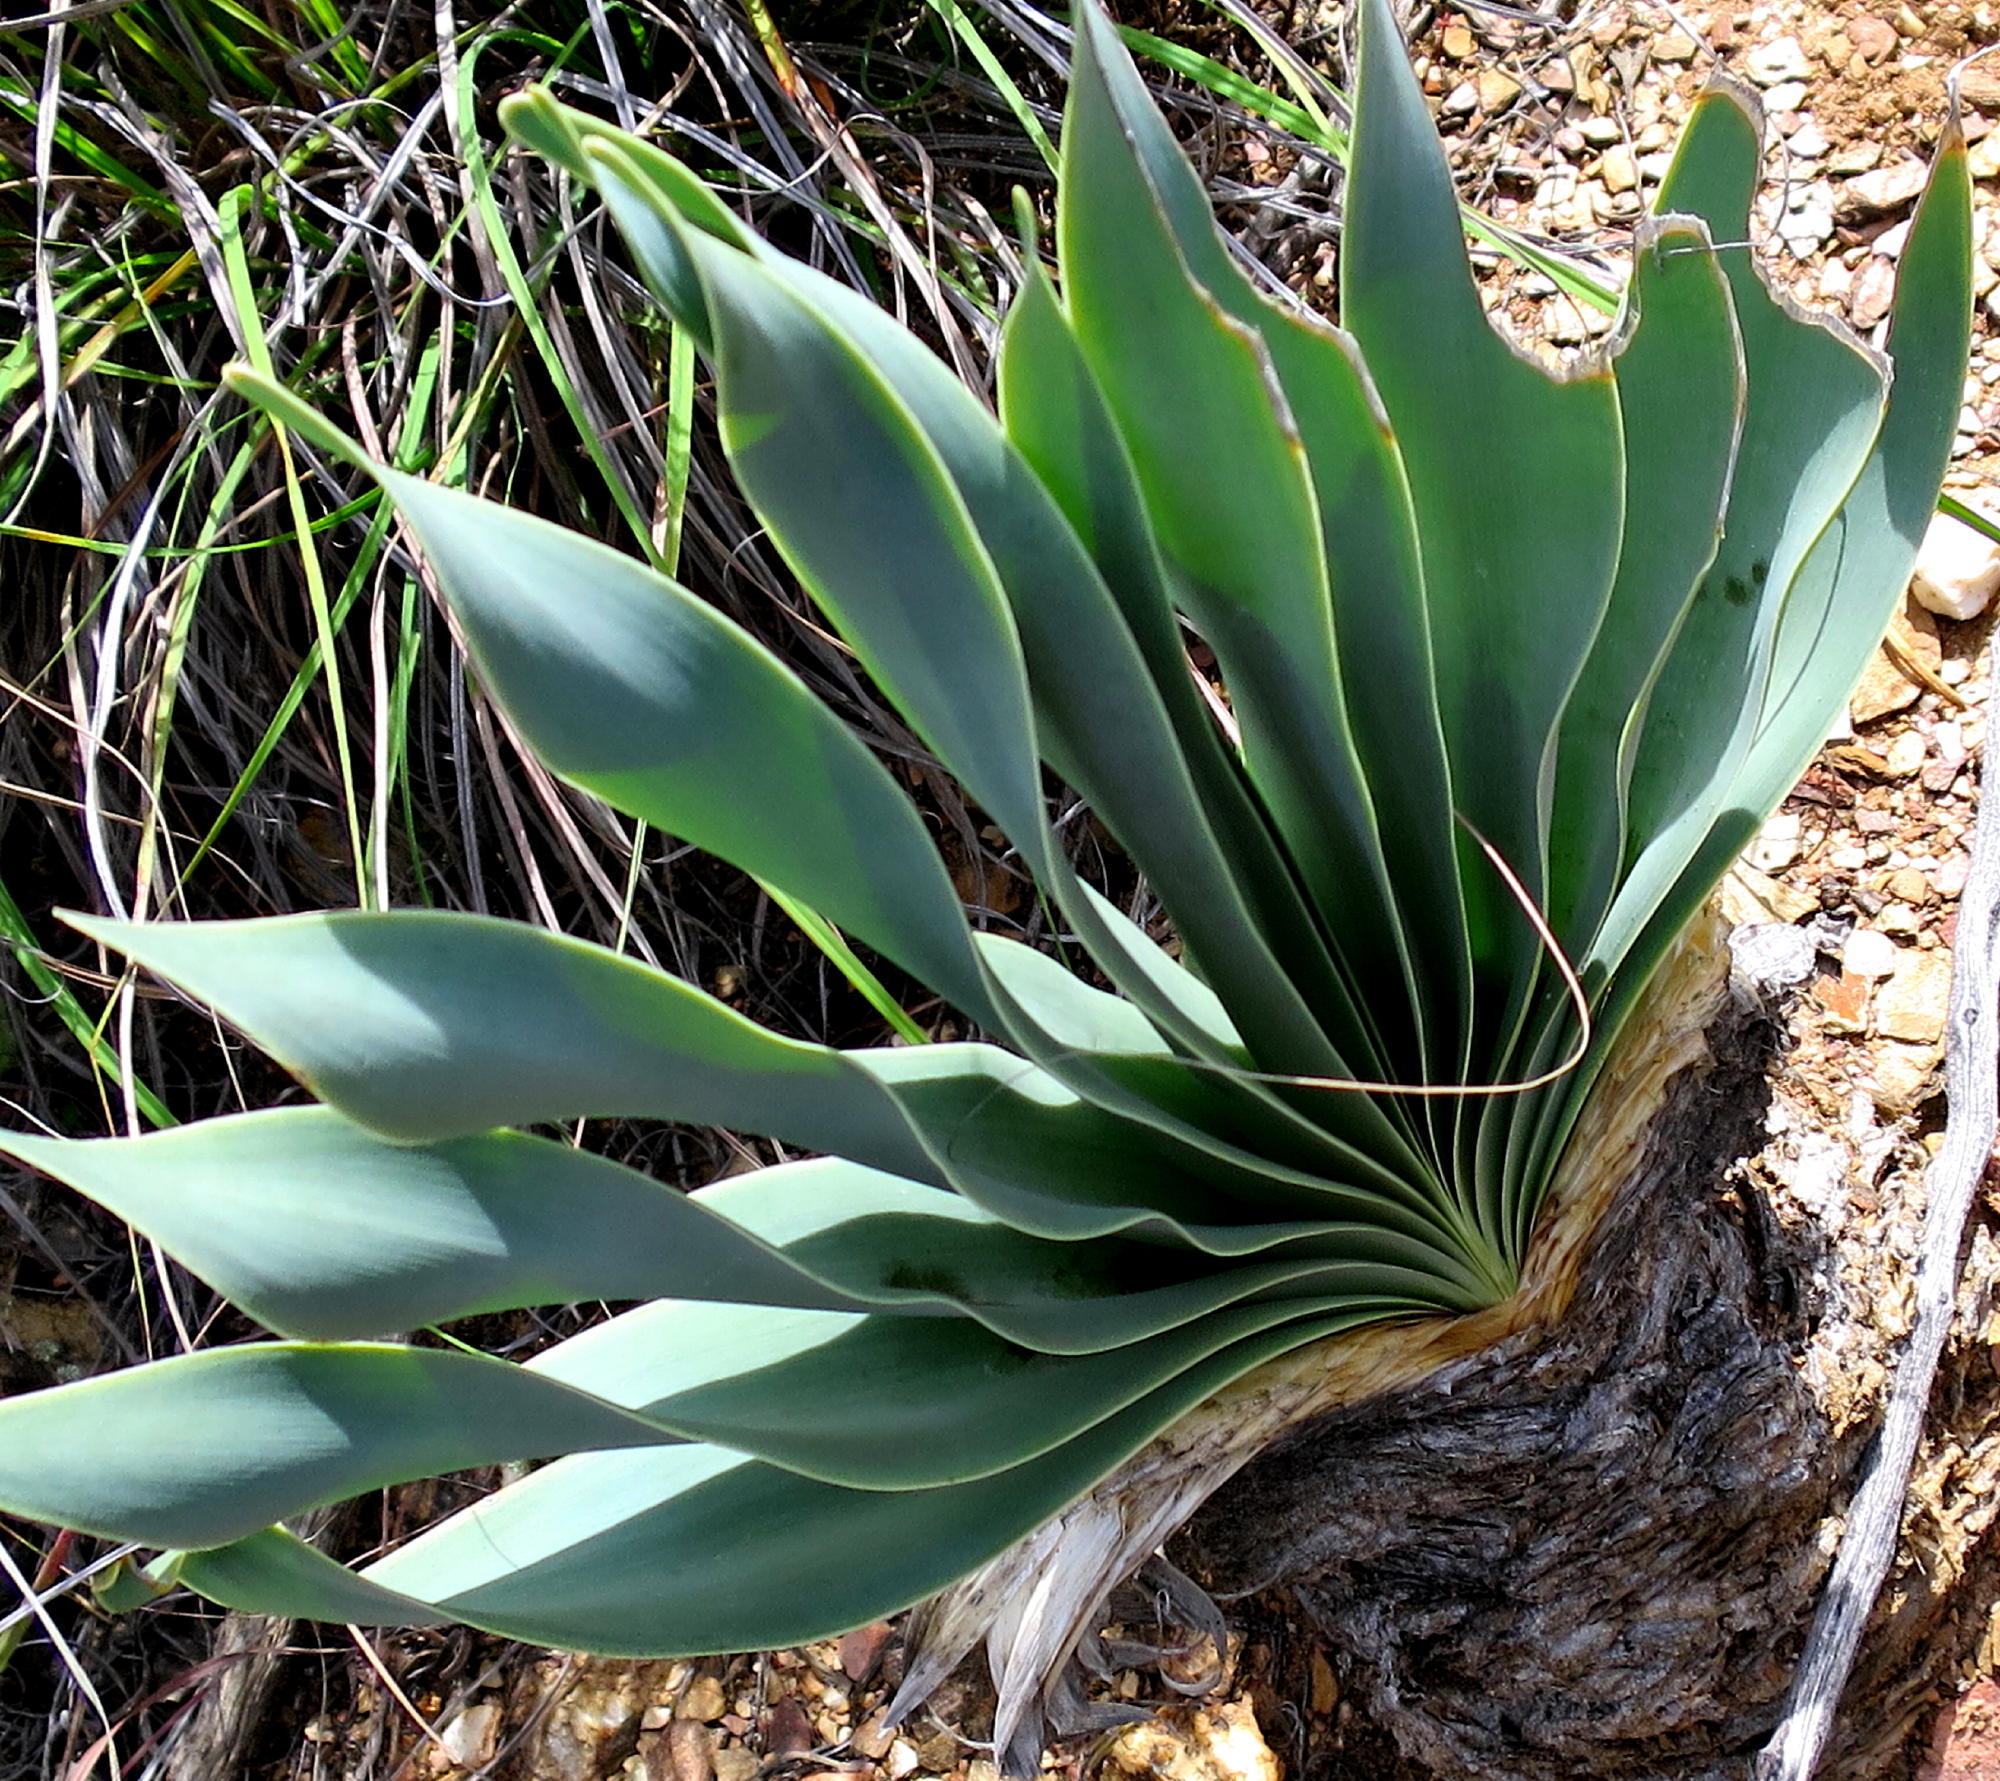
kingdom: Plantae
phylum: Tracheophyta
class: Liliopsida
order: Asparagales
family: Amaryllidaceae
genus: Boophone
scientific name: Boophone disticha
